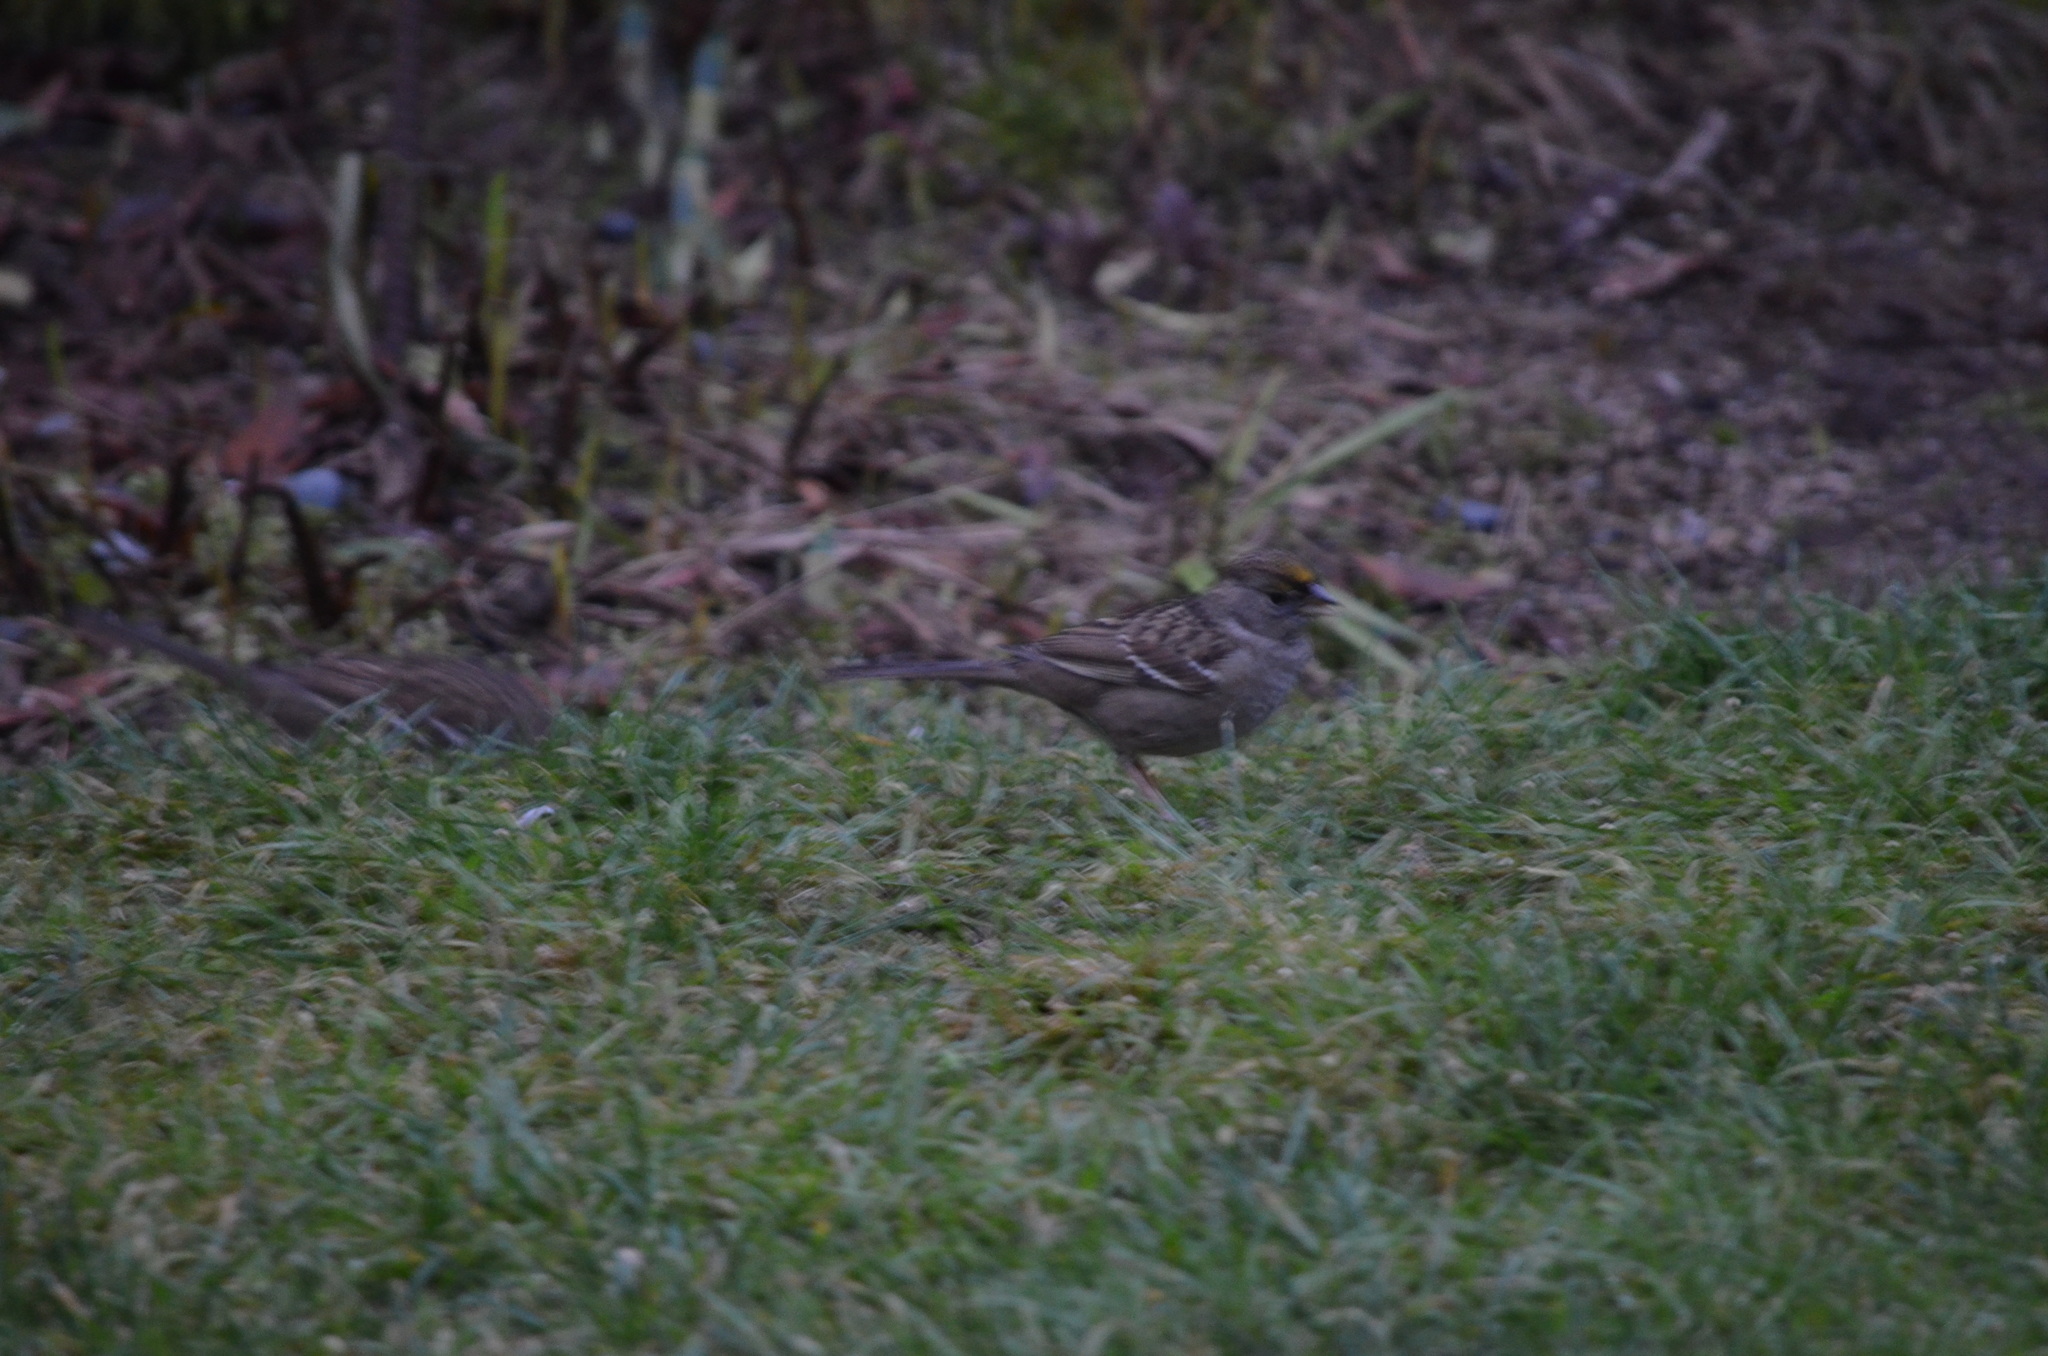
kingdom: Animalia
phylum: Chordata
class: Aves
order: Passeriformes
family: Passerellidae
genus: Zonotrichia
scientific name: Zonotrichia atricapilla
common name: Golden-crowned sparrow
